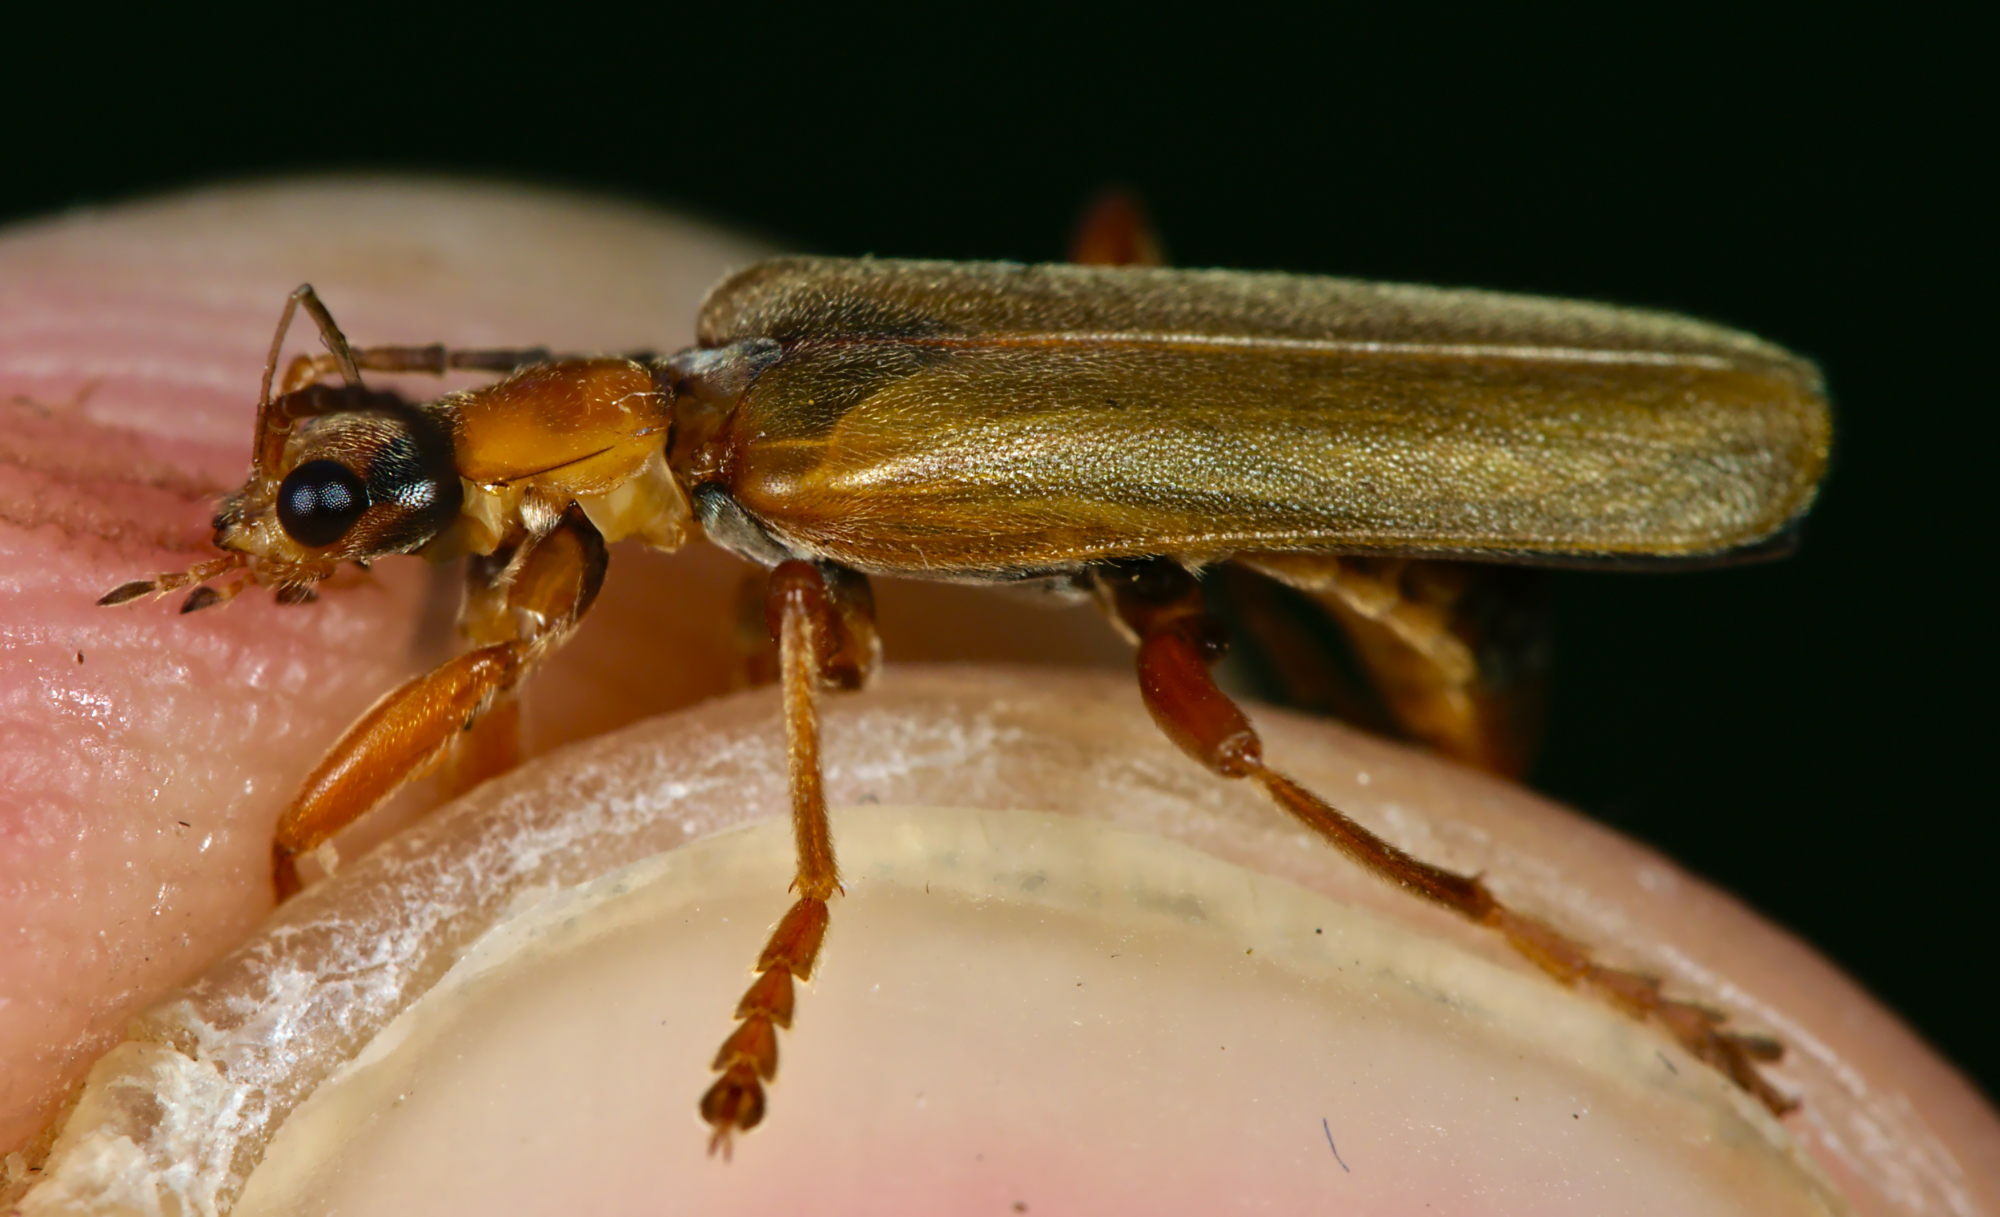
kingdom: Animalia
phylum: Arthropoda
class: Insecta
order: Coleoptera
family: Cantharidae
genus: Cantharis
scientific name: Cantharis rufa
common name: Red-spotted soldier beetle
